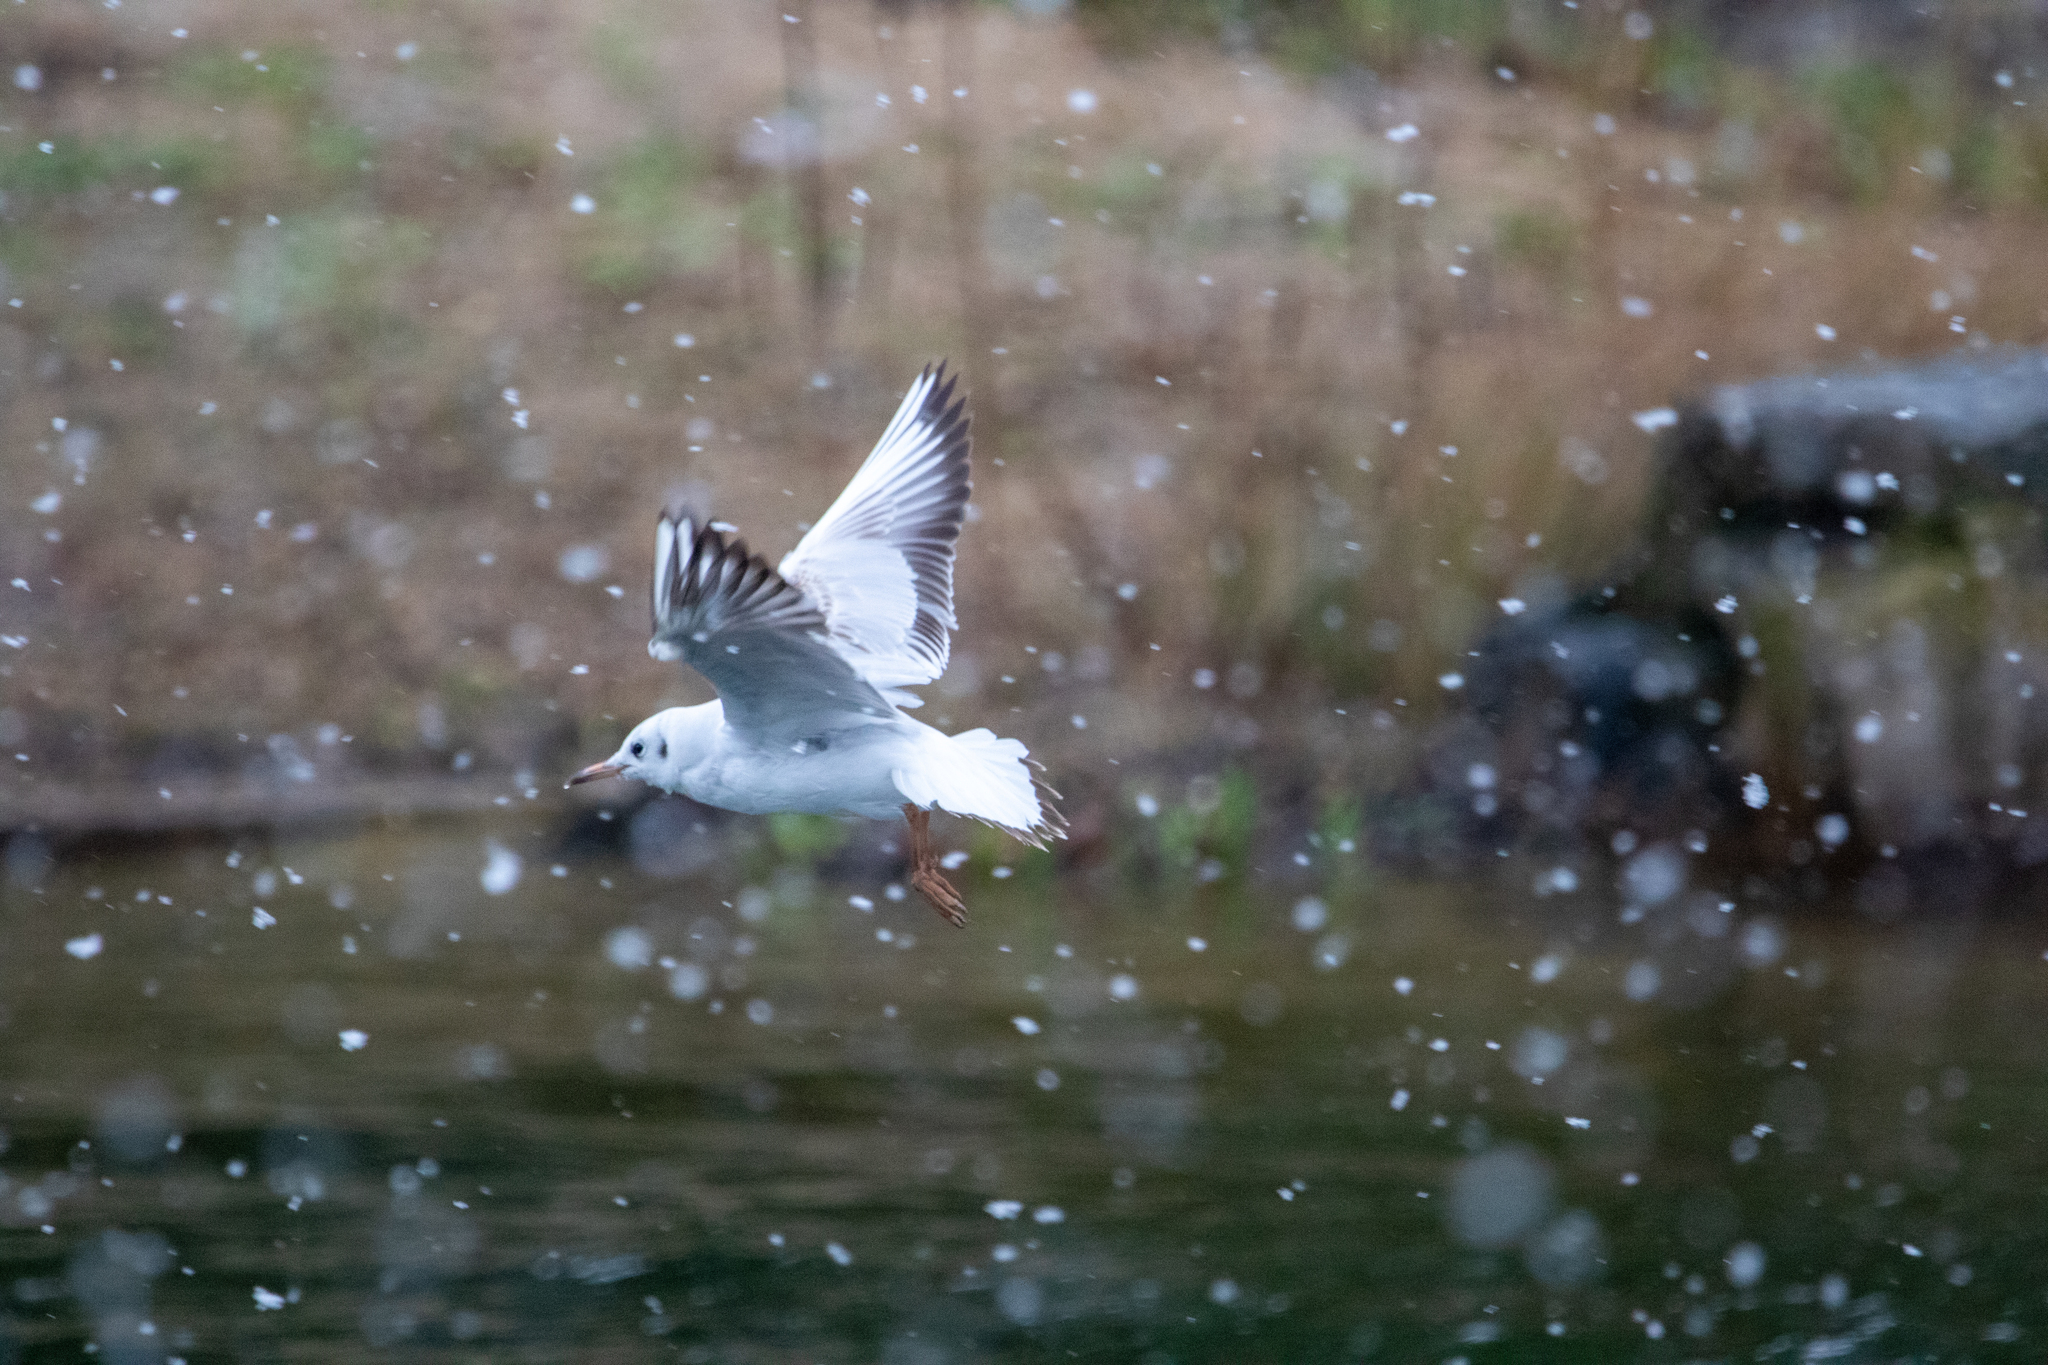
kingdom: Animalia
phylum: Chordata
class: Aves
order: Charadriiformes
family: Laridae
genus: Chroicocephalus
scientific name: Chroicocephalus ridibundus
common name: Black-headed gull
